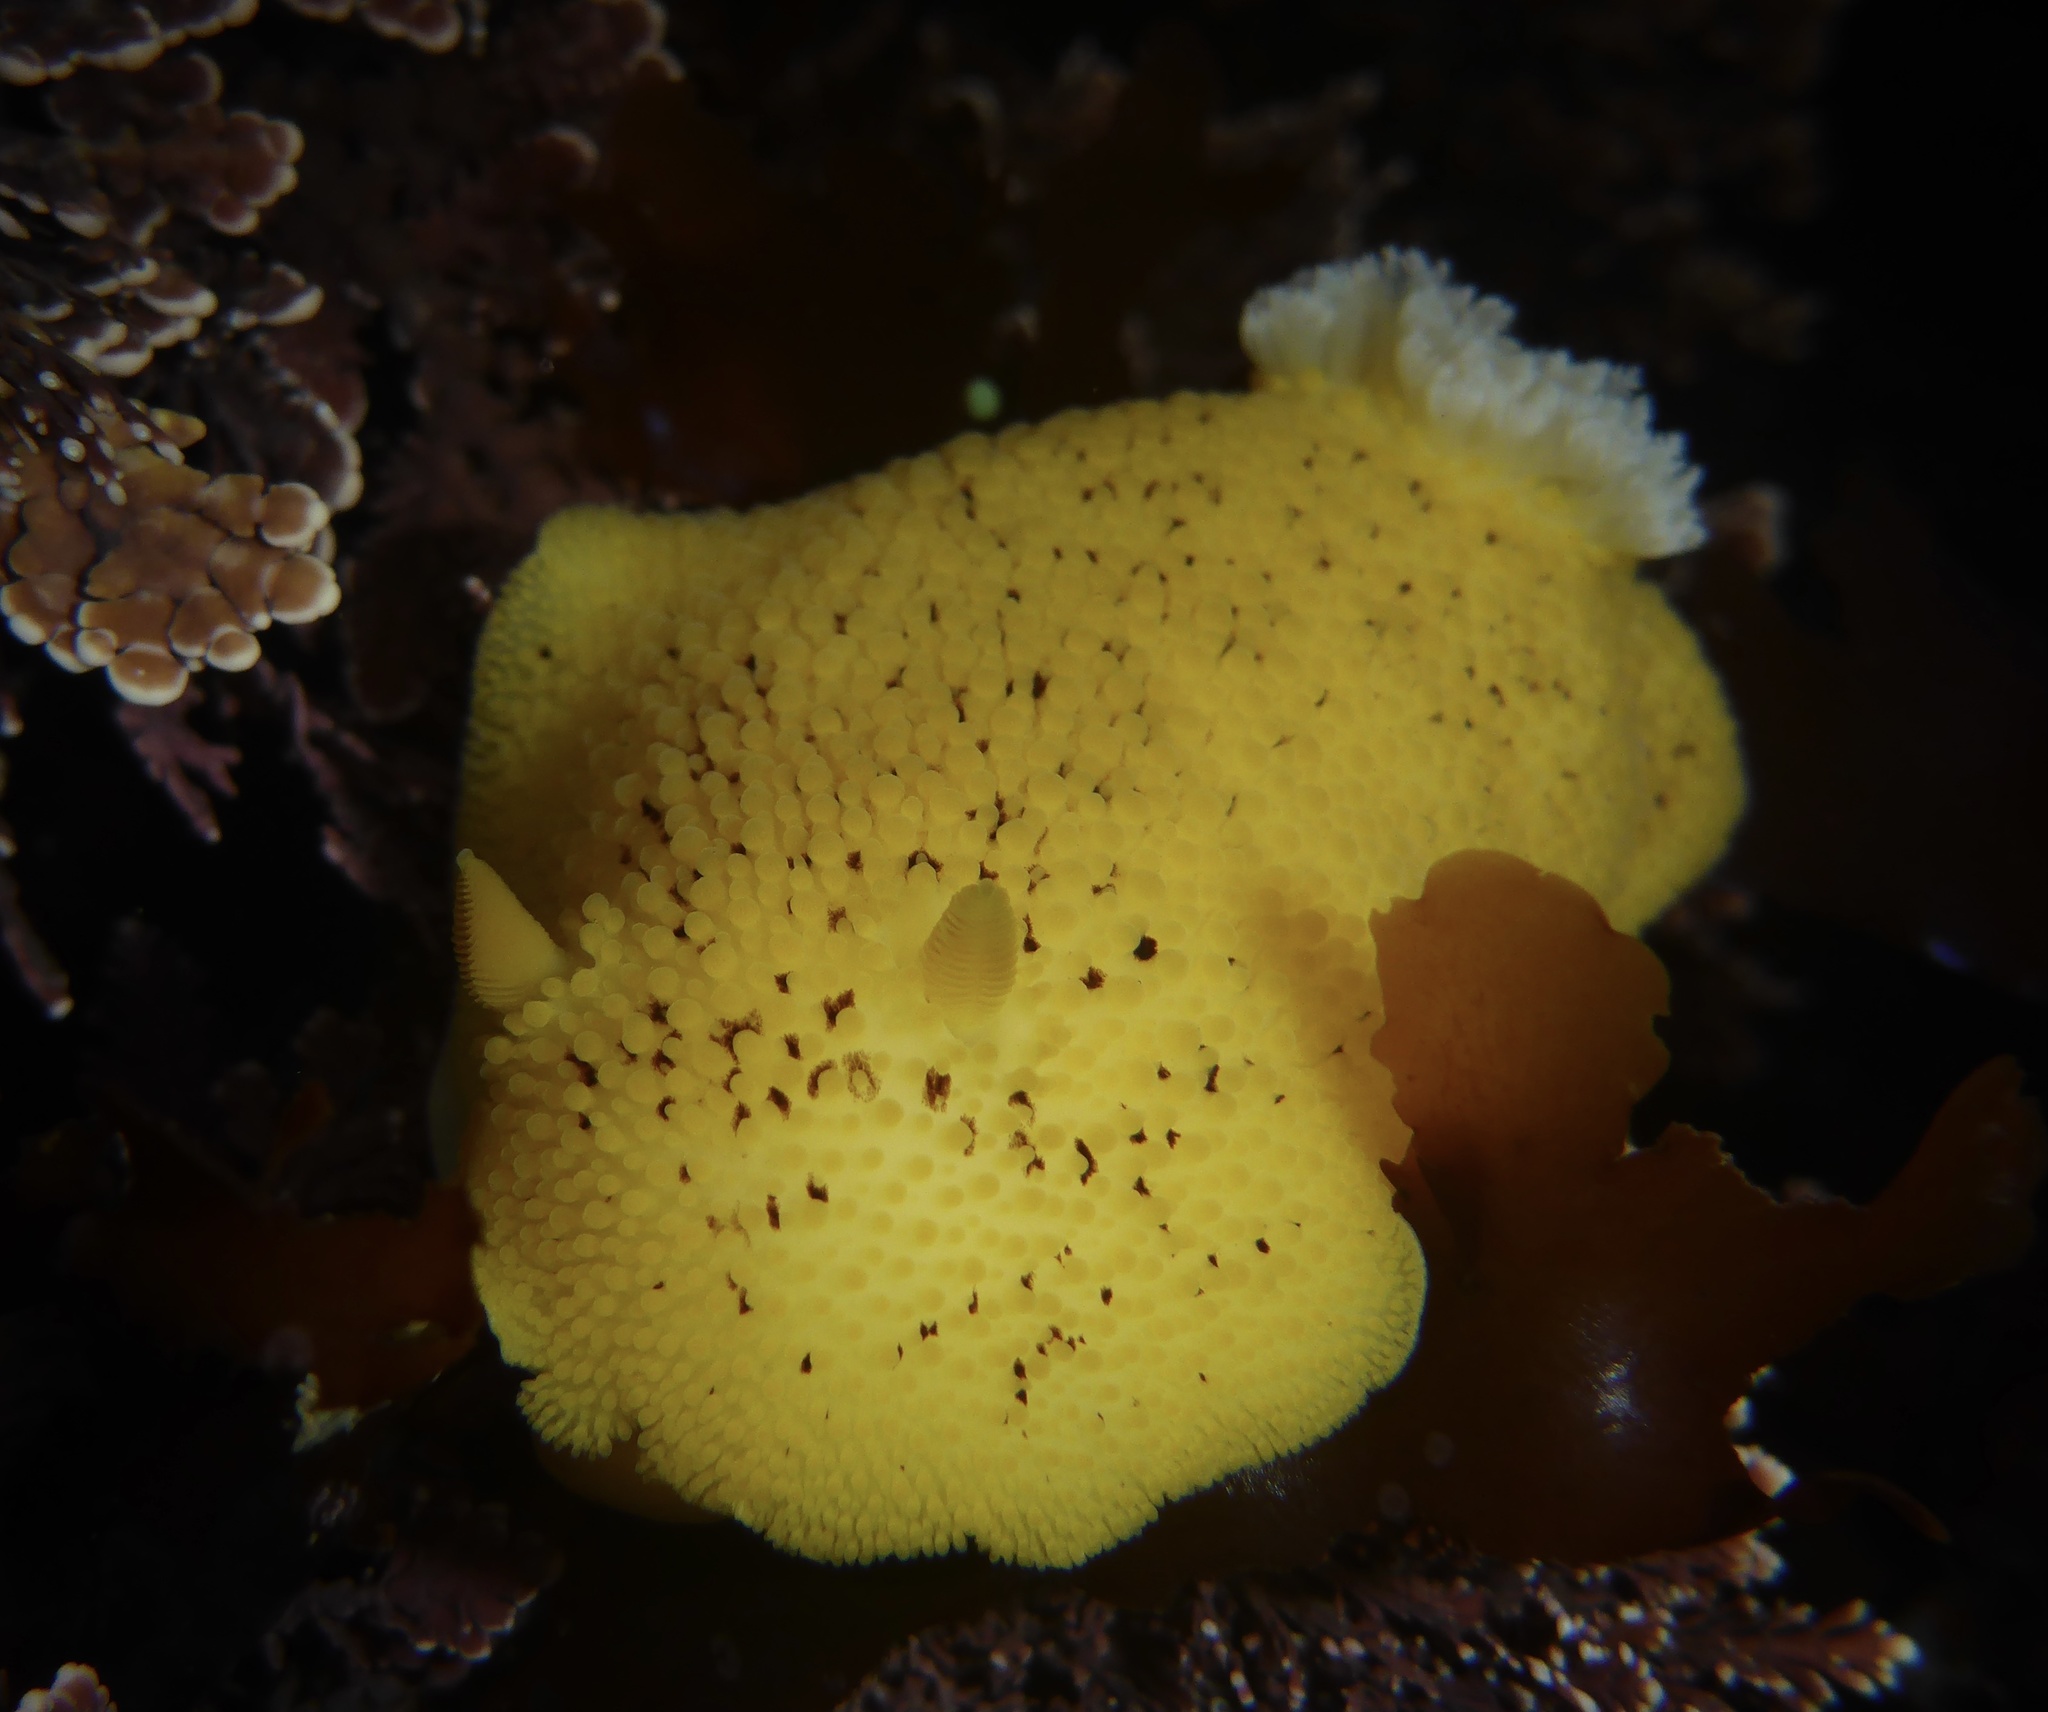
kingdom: Animalia
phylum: Mollusca
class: Gastropoda
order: Nudibranchia
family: Discodorididae
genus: Peltodoris
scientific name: Peltodoris nobilis
